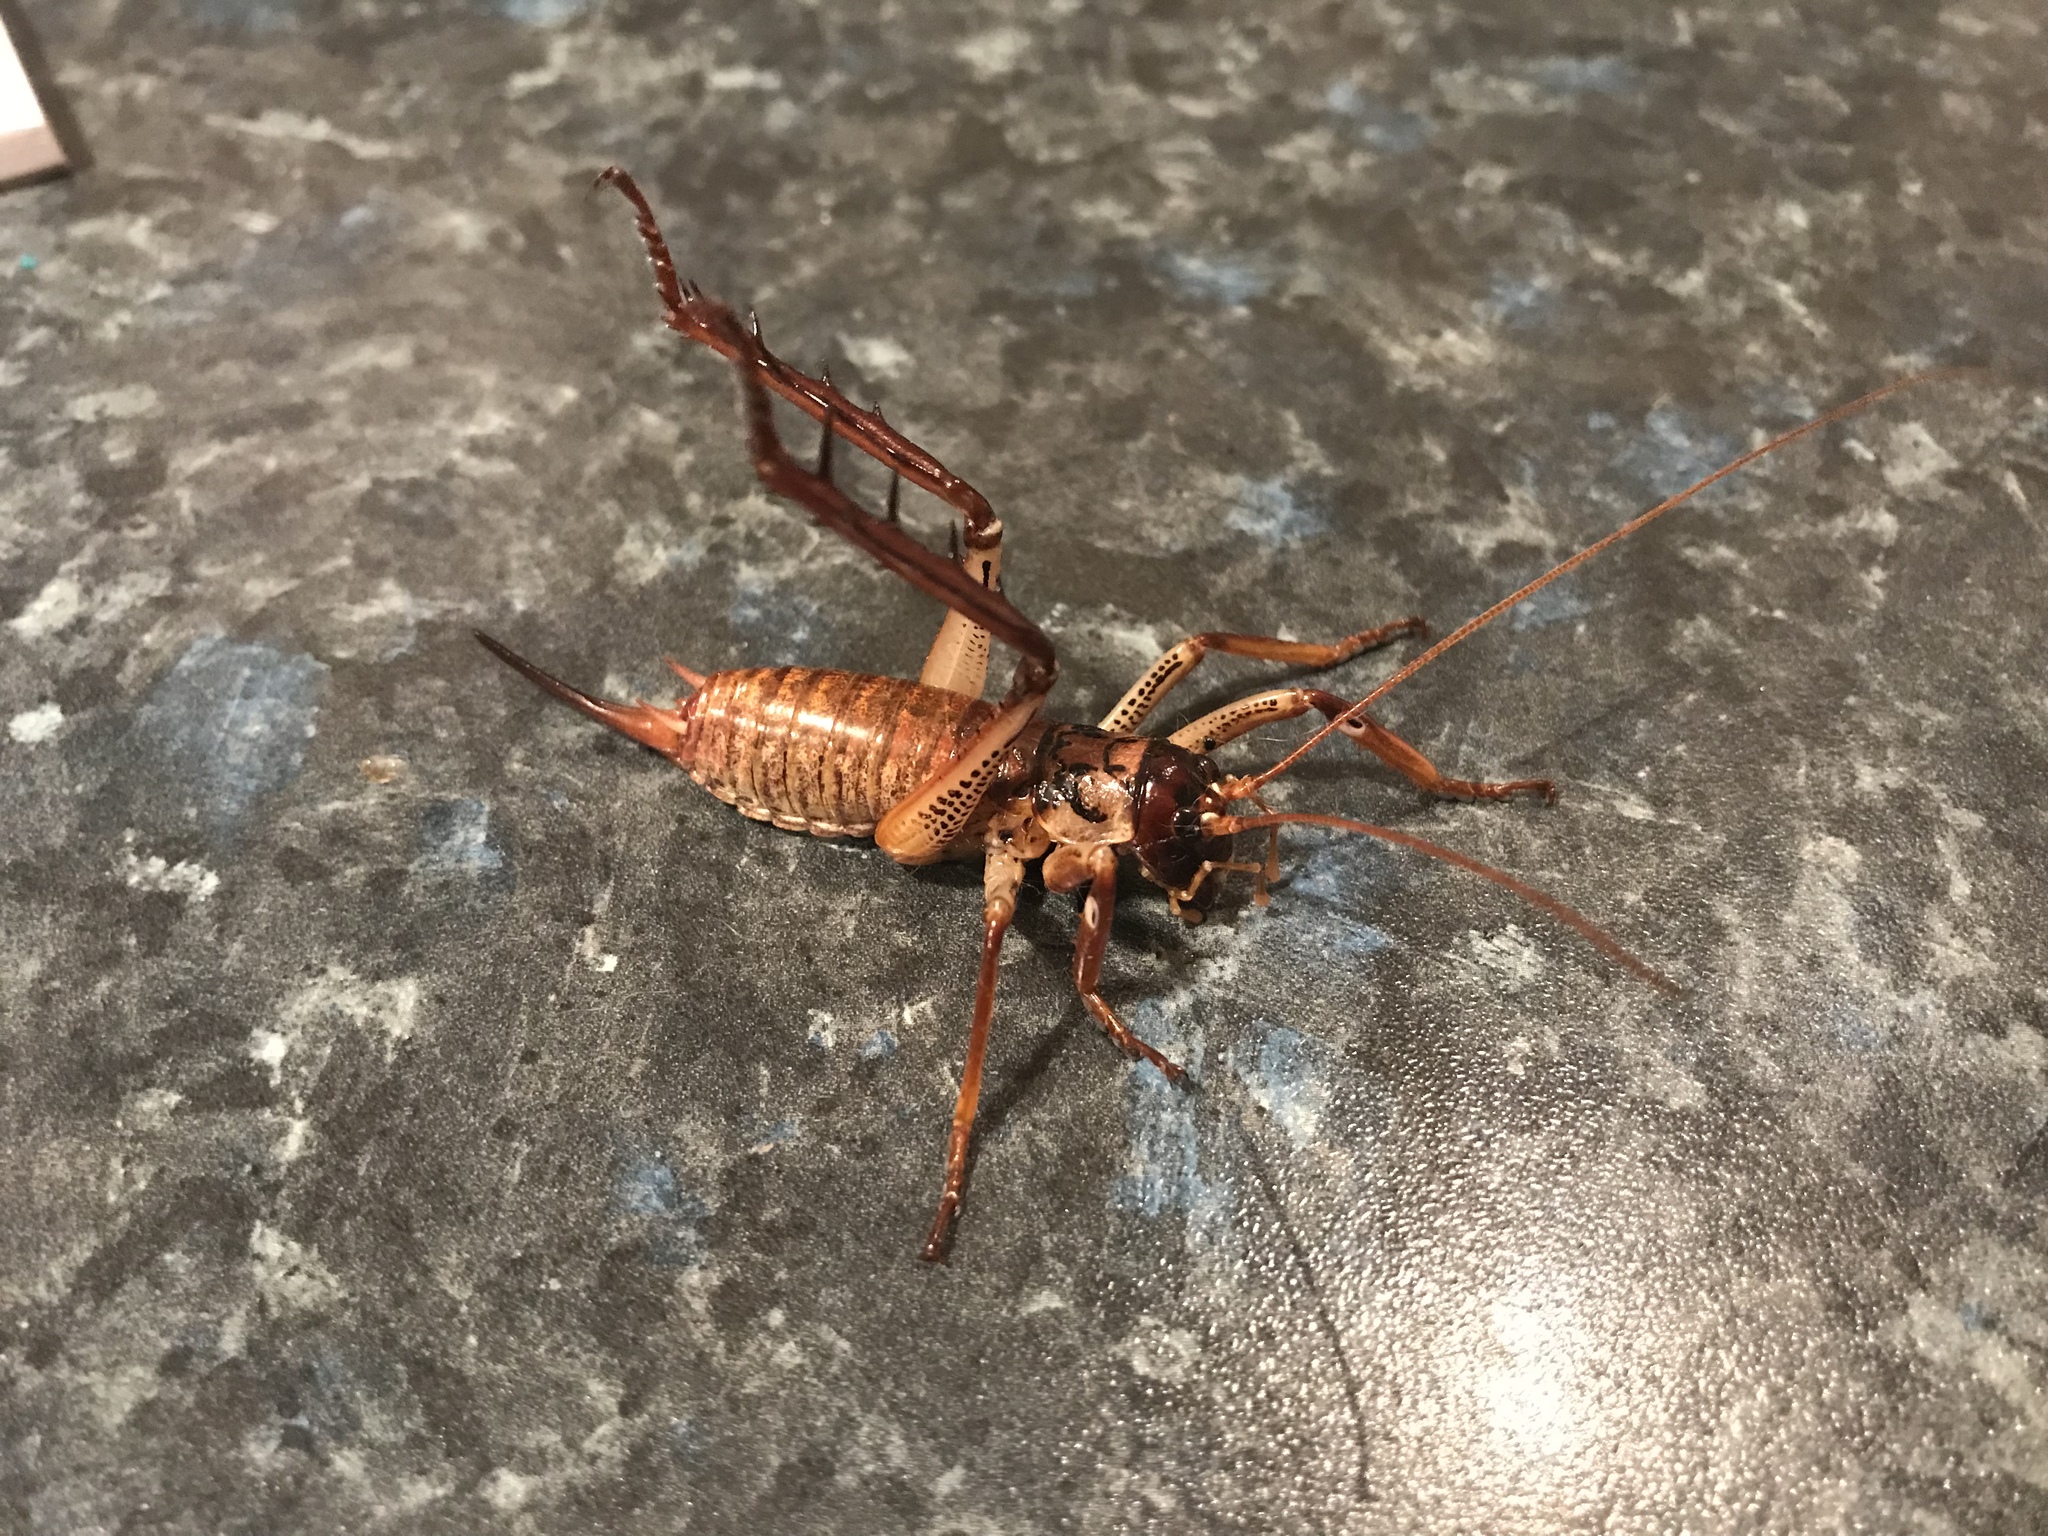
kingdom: Animalia
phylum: Arthropoda
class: Insecta
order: Orthoptera
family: Anostostomatidae
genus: Hemideina
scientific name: Hemideina thoracica
